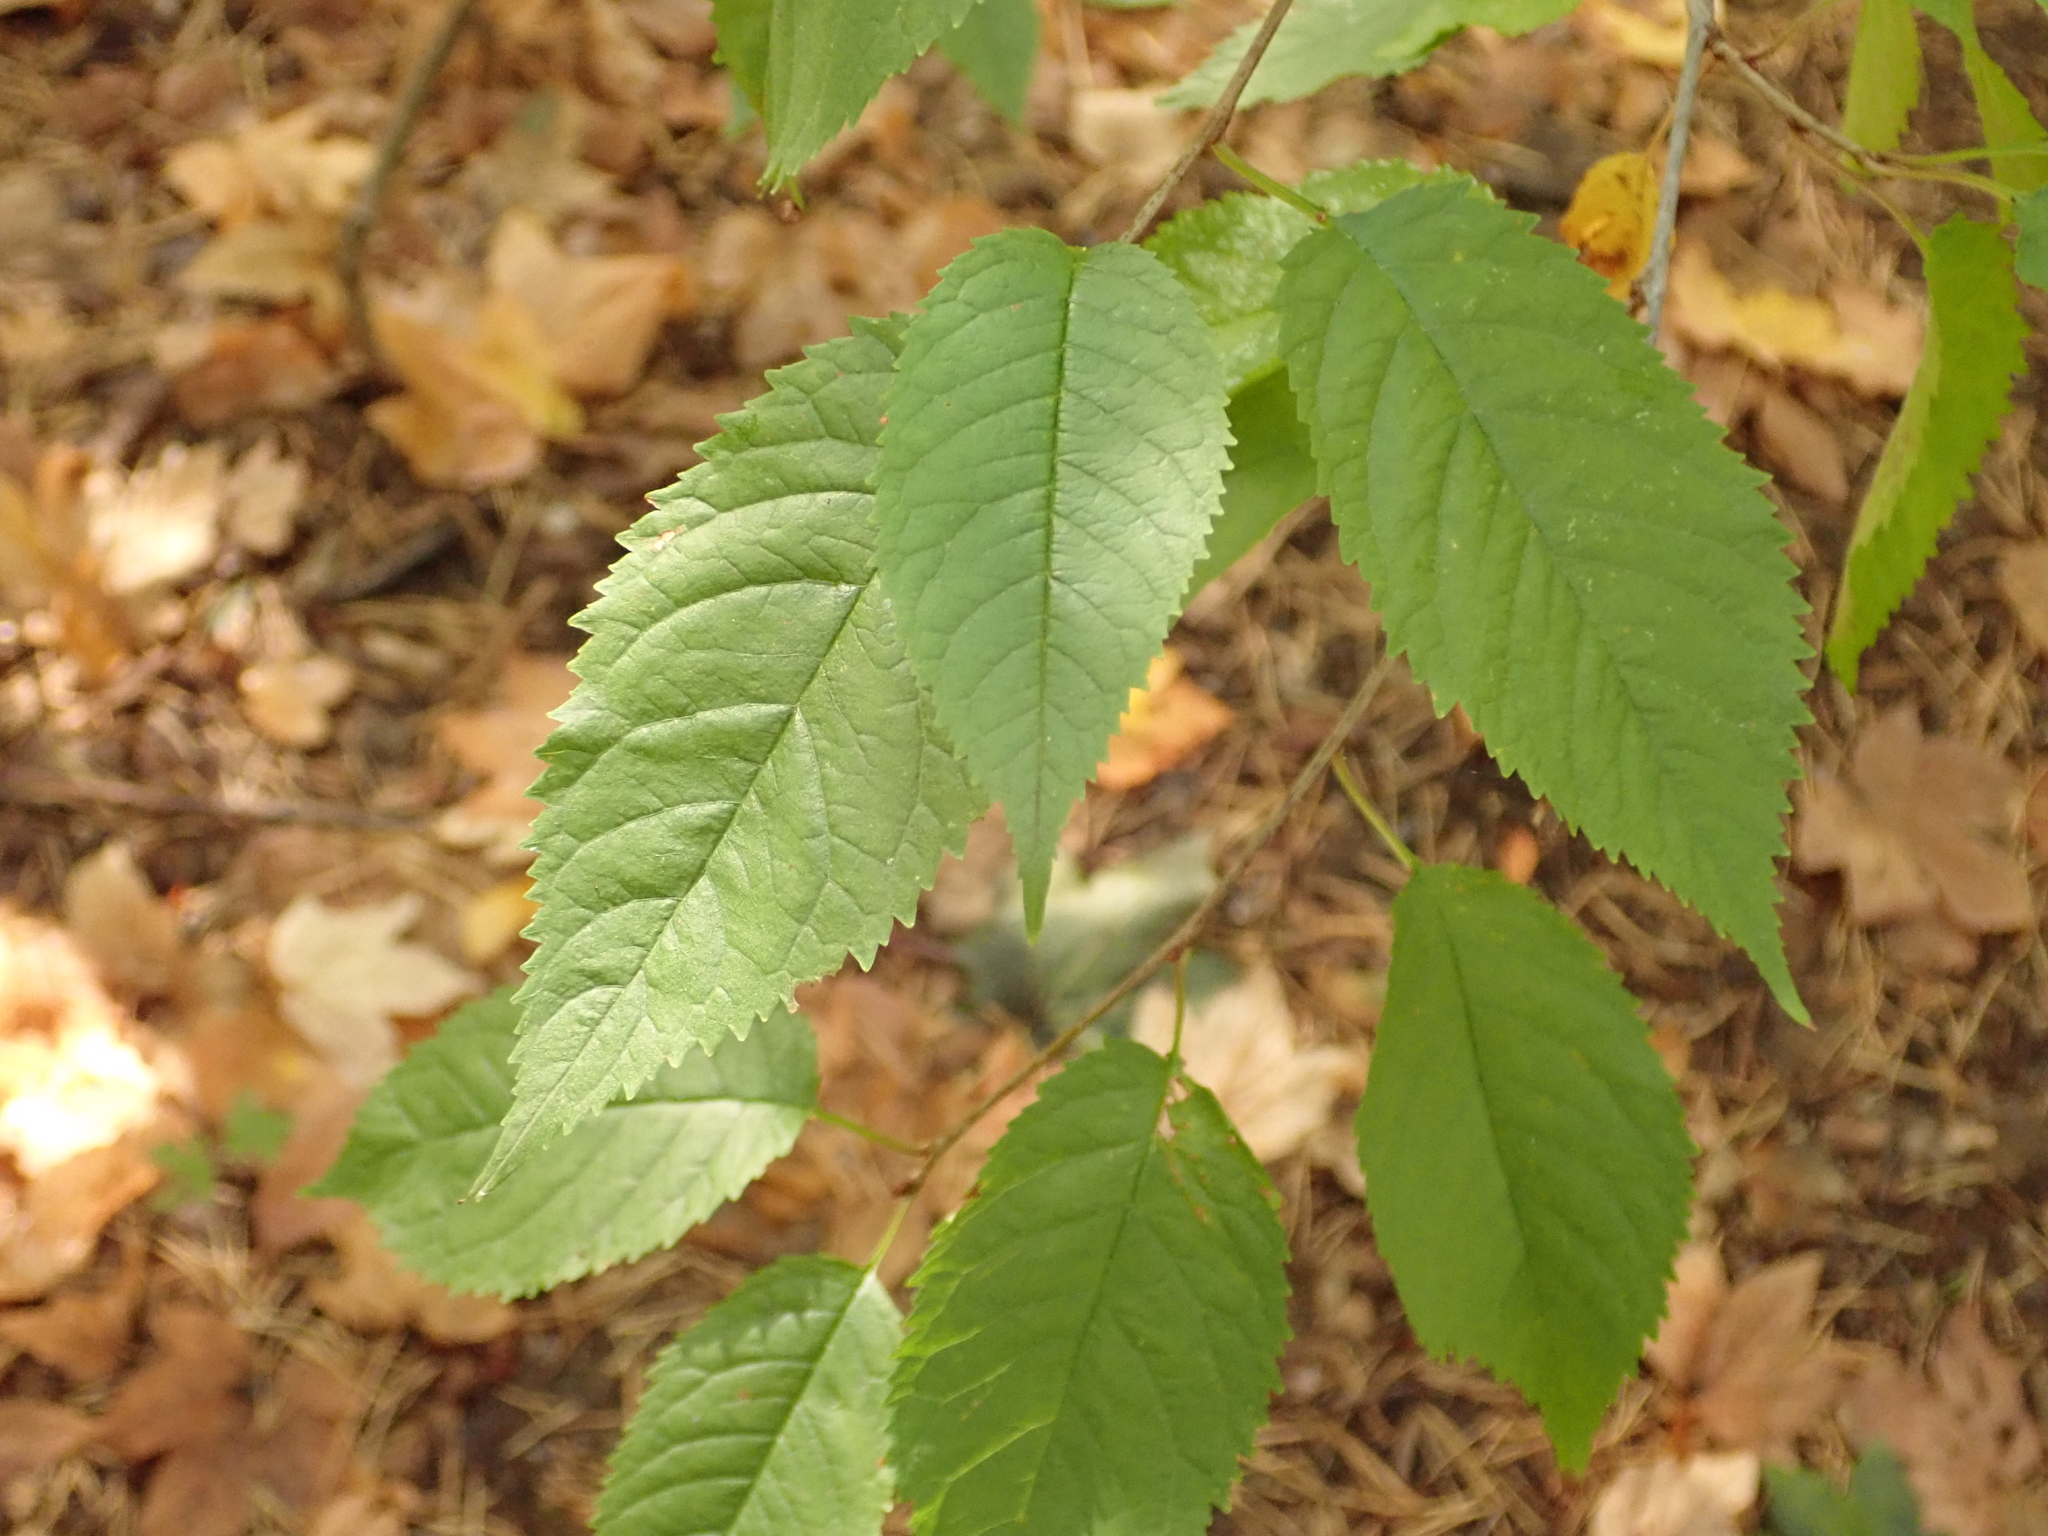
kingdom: Plantae
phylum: Tracheophyta
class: Magnoliopsida
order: Rosales
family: Rosaceae
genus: Prunus
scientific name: Prunus avium
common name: Sweet cherry
